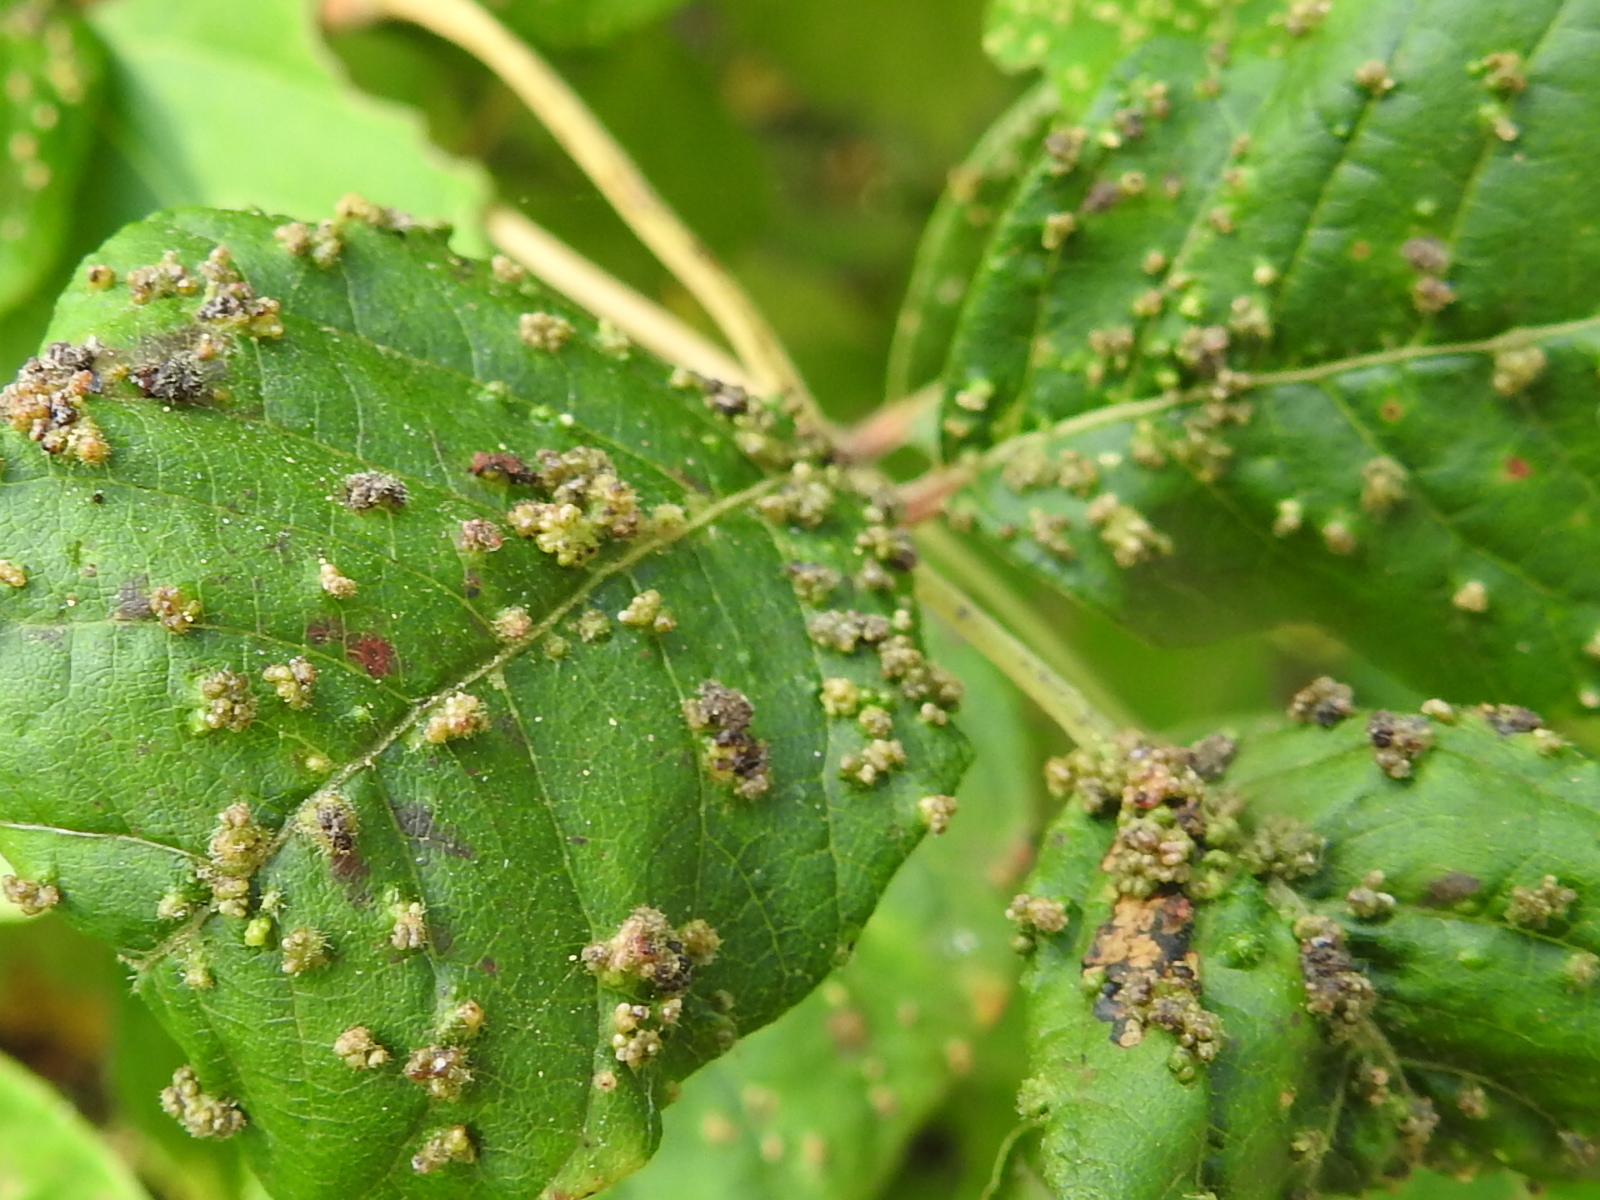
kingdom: Animalia
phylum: Arthropoda
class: Arachnida
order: Trombidiformes
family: Eriophyidae
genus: Aculops
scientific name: Aculops
